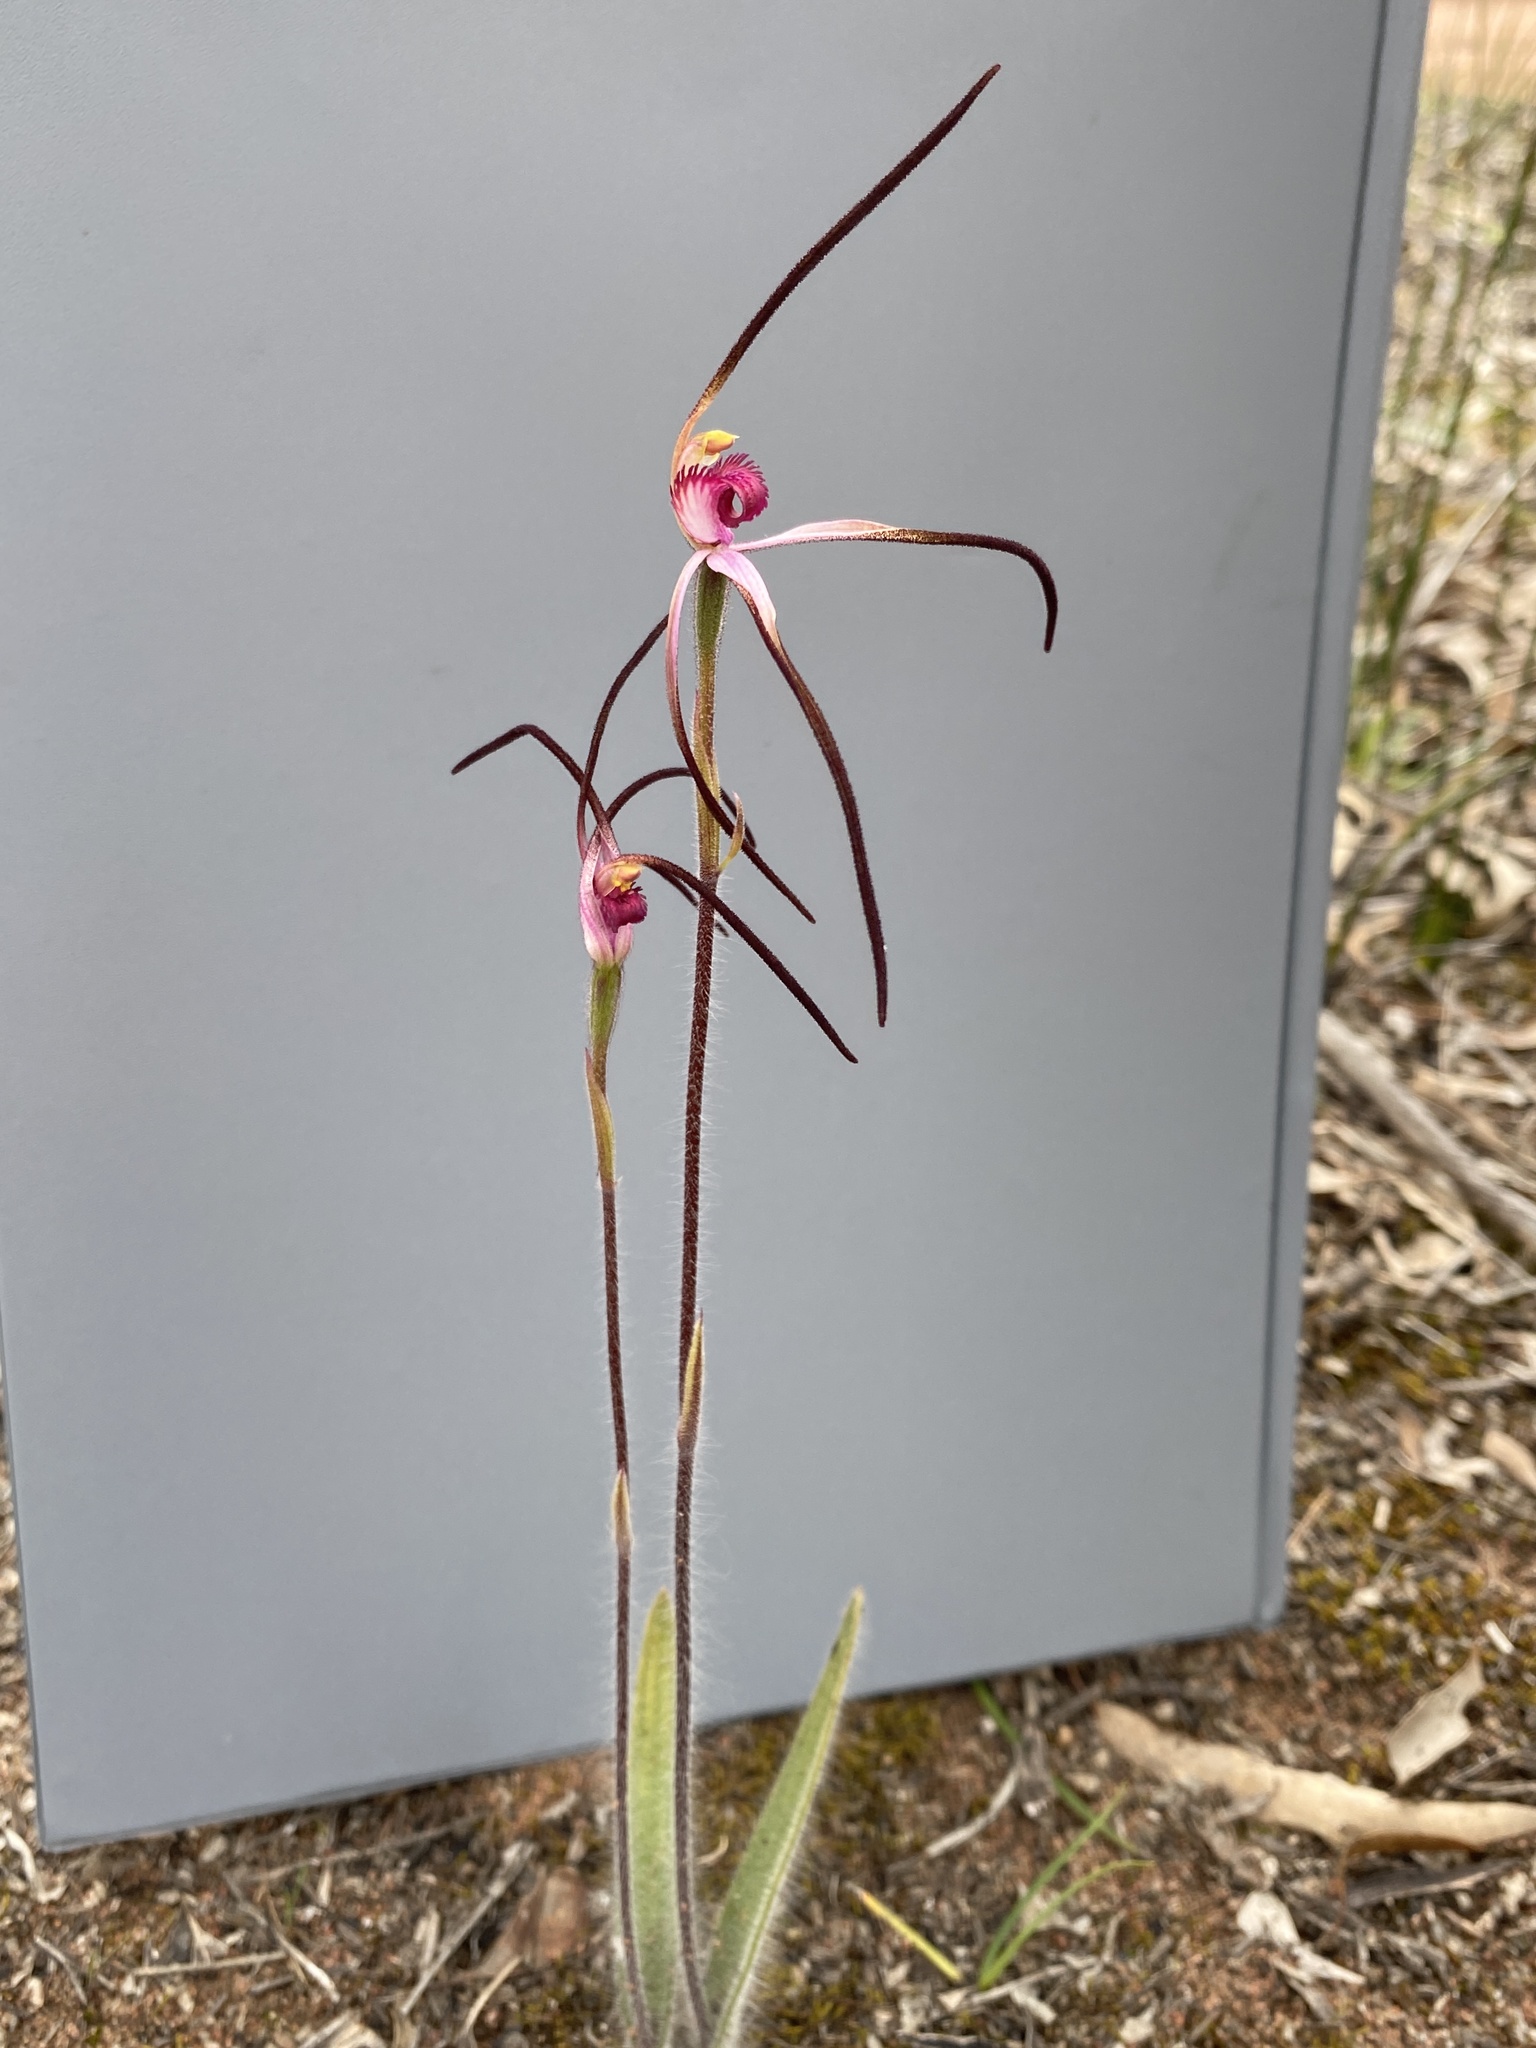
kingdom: Plantae
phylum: Tracheophyta
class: Liliopsida
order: Asparagales
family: Orchidaceae
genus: Caladenia
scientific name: Caladenia versicolor
